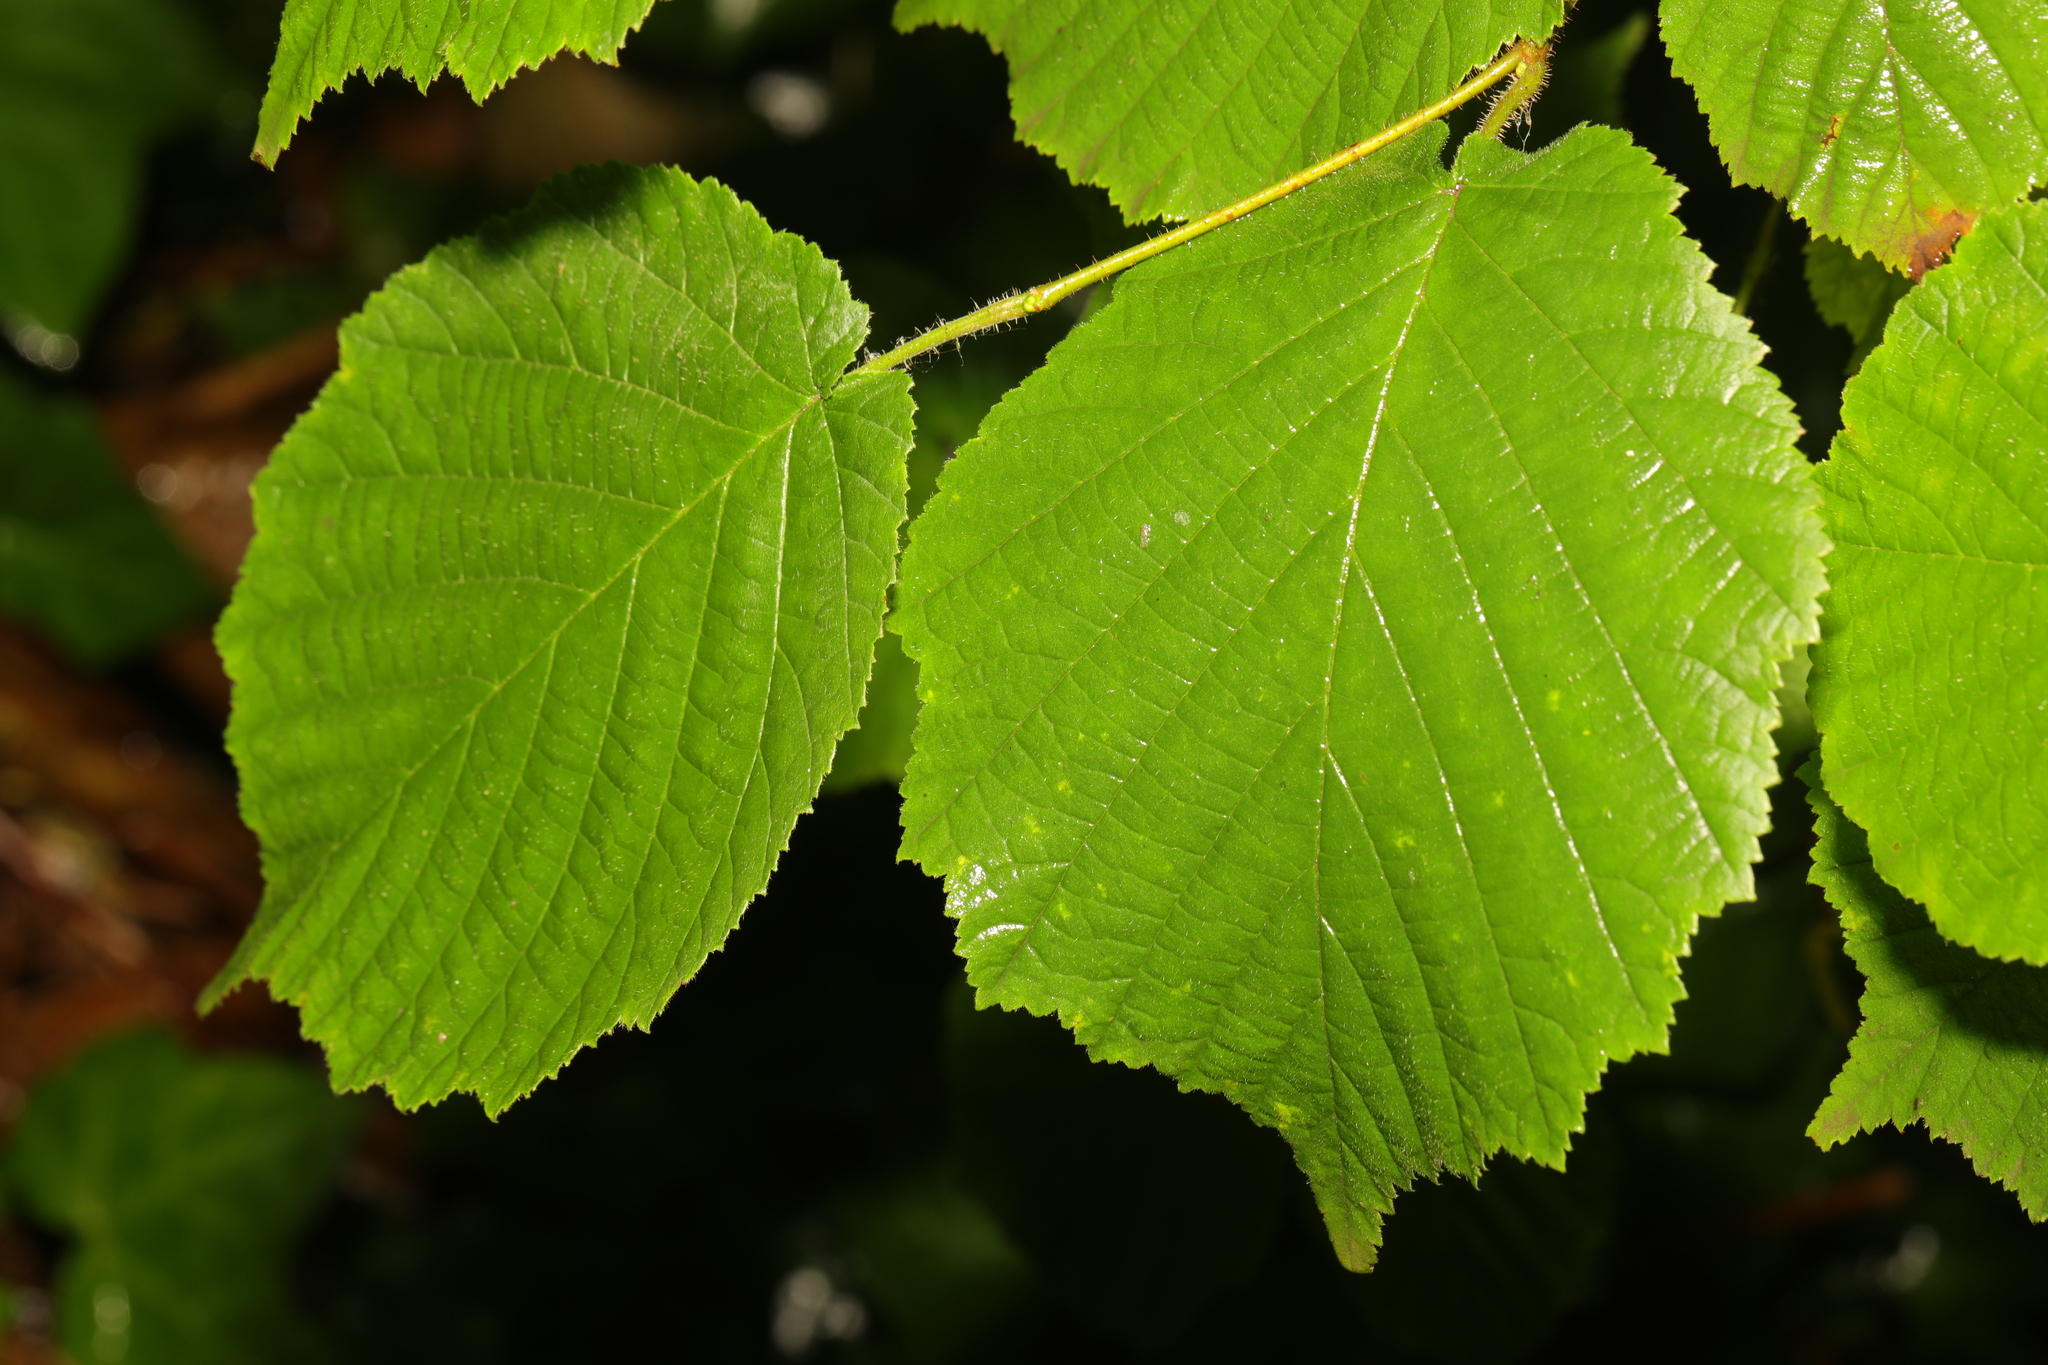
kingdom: Plantae
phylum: Tracheophyta
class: Magnoliopsida
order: Fagales
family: Betulaceae
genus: Corylus
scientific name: Corylus avellana
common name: European hazel
